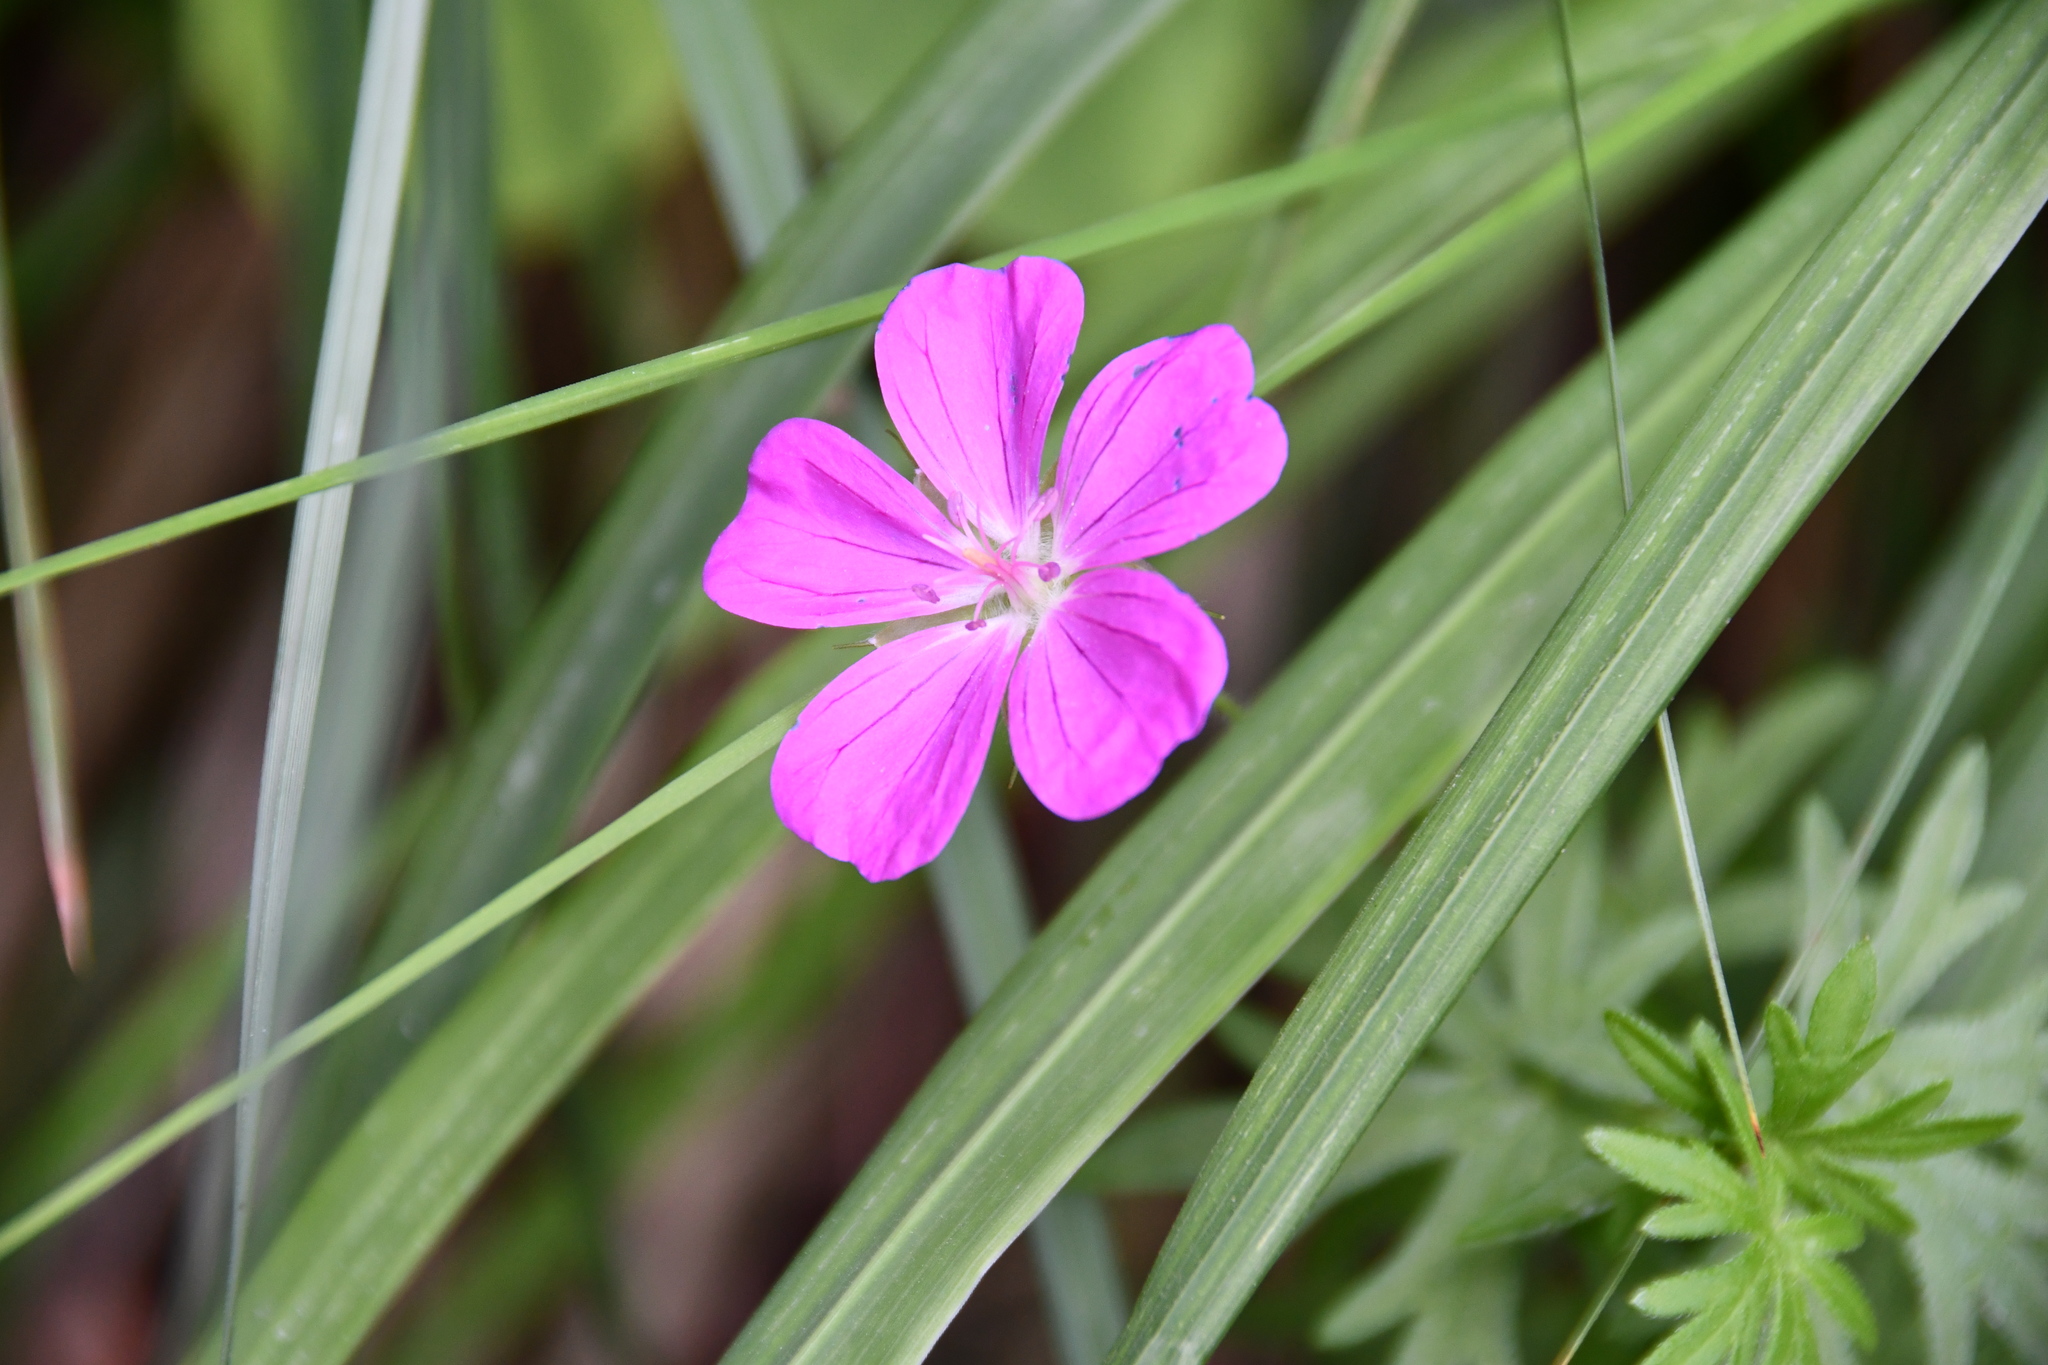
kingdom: Plantae
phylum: Tracheophyta
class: Magnoliopsida
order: Geraniales
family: Geraniaceae
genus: Geranium
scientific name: Geranium sanguineum
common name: Bloody crane's-bill
